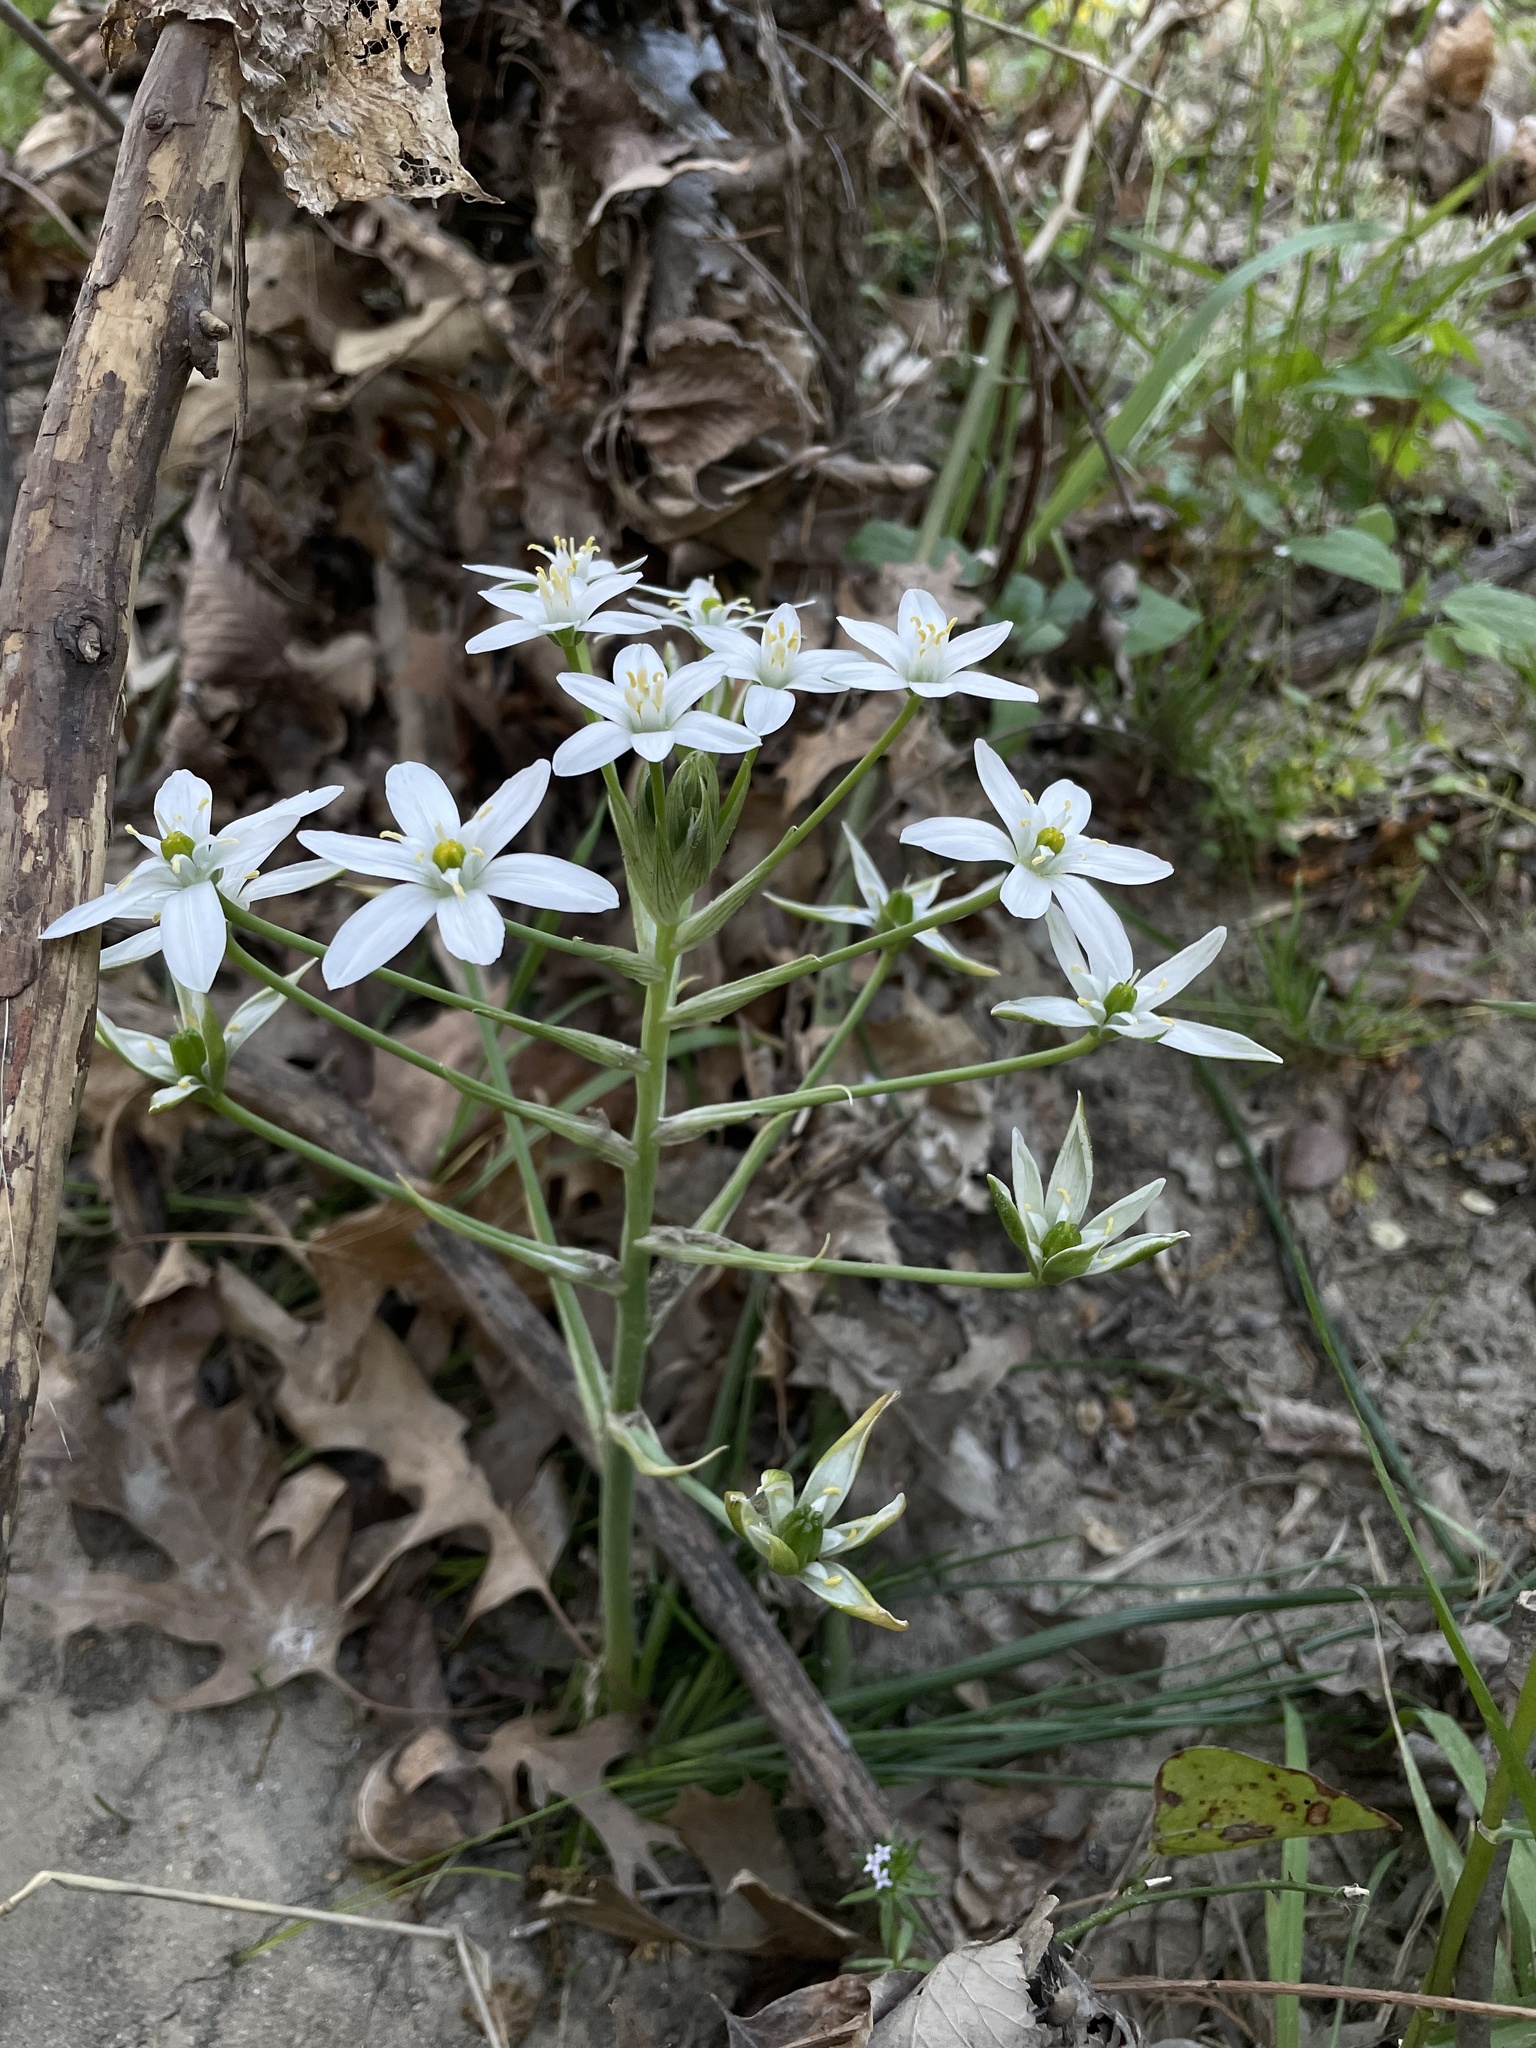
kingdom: Plantae
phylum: Tracheophyta
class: Liliopsida
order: Asparagales
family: Asparagaceae
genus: Ornithogalum
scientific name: Ornithogalum umbellatum
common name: Garden star-of-bethlehem
